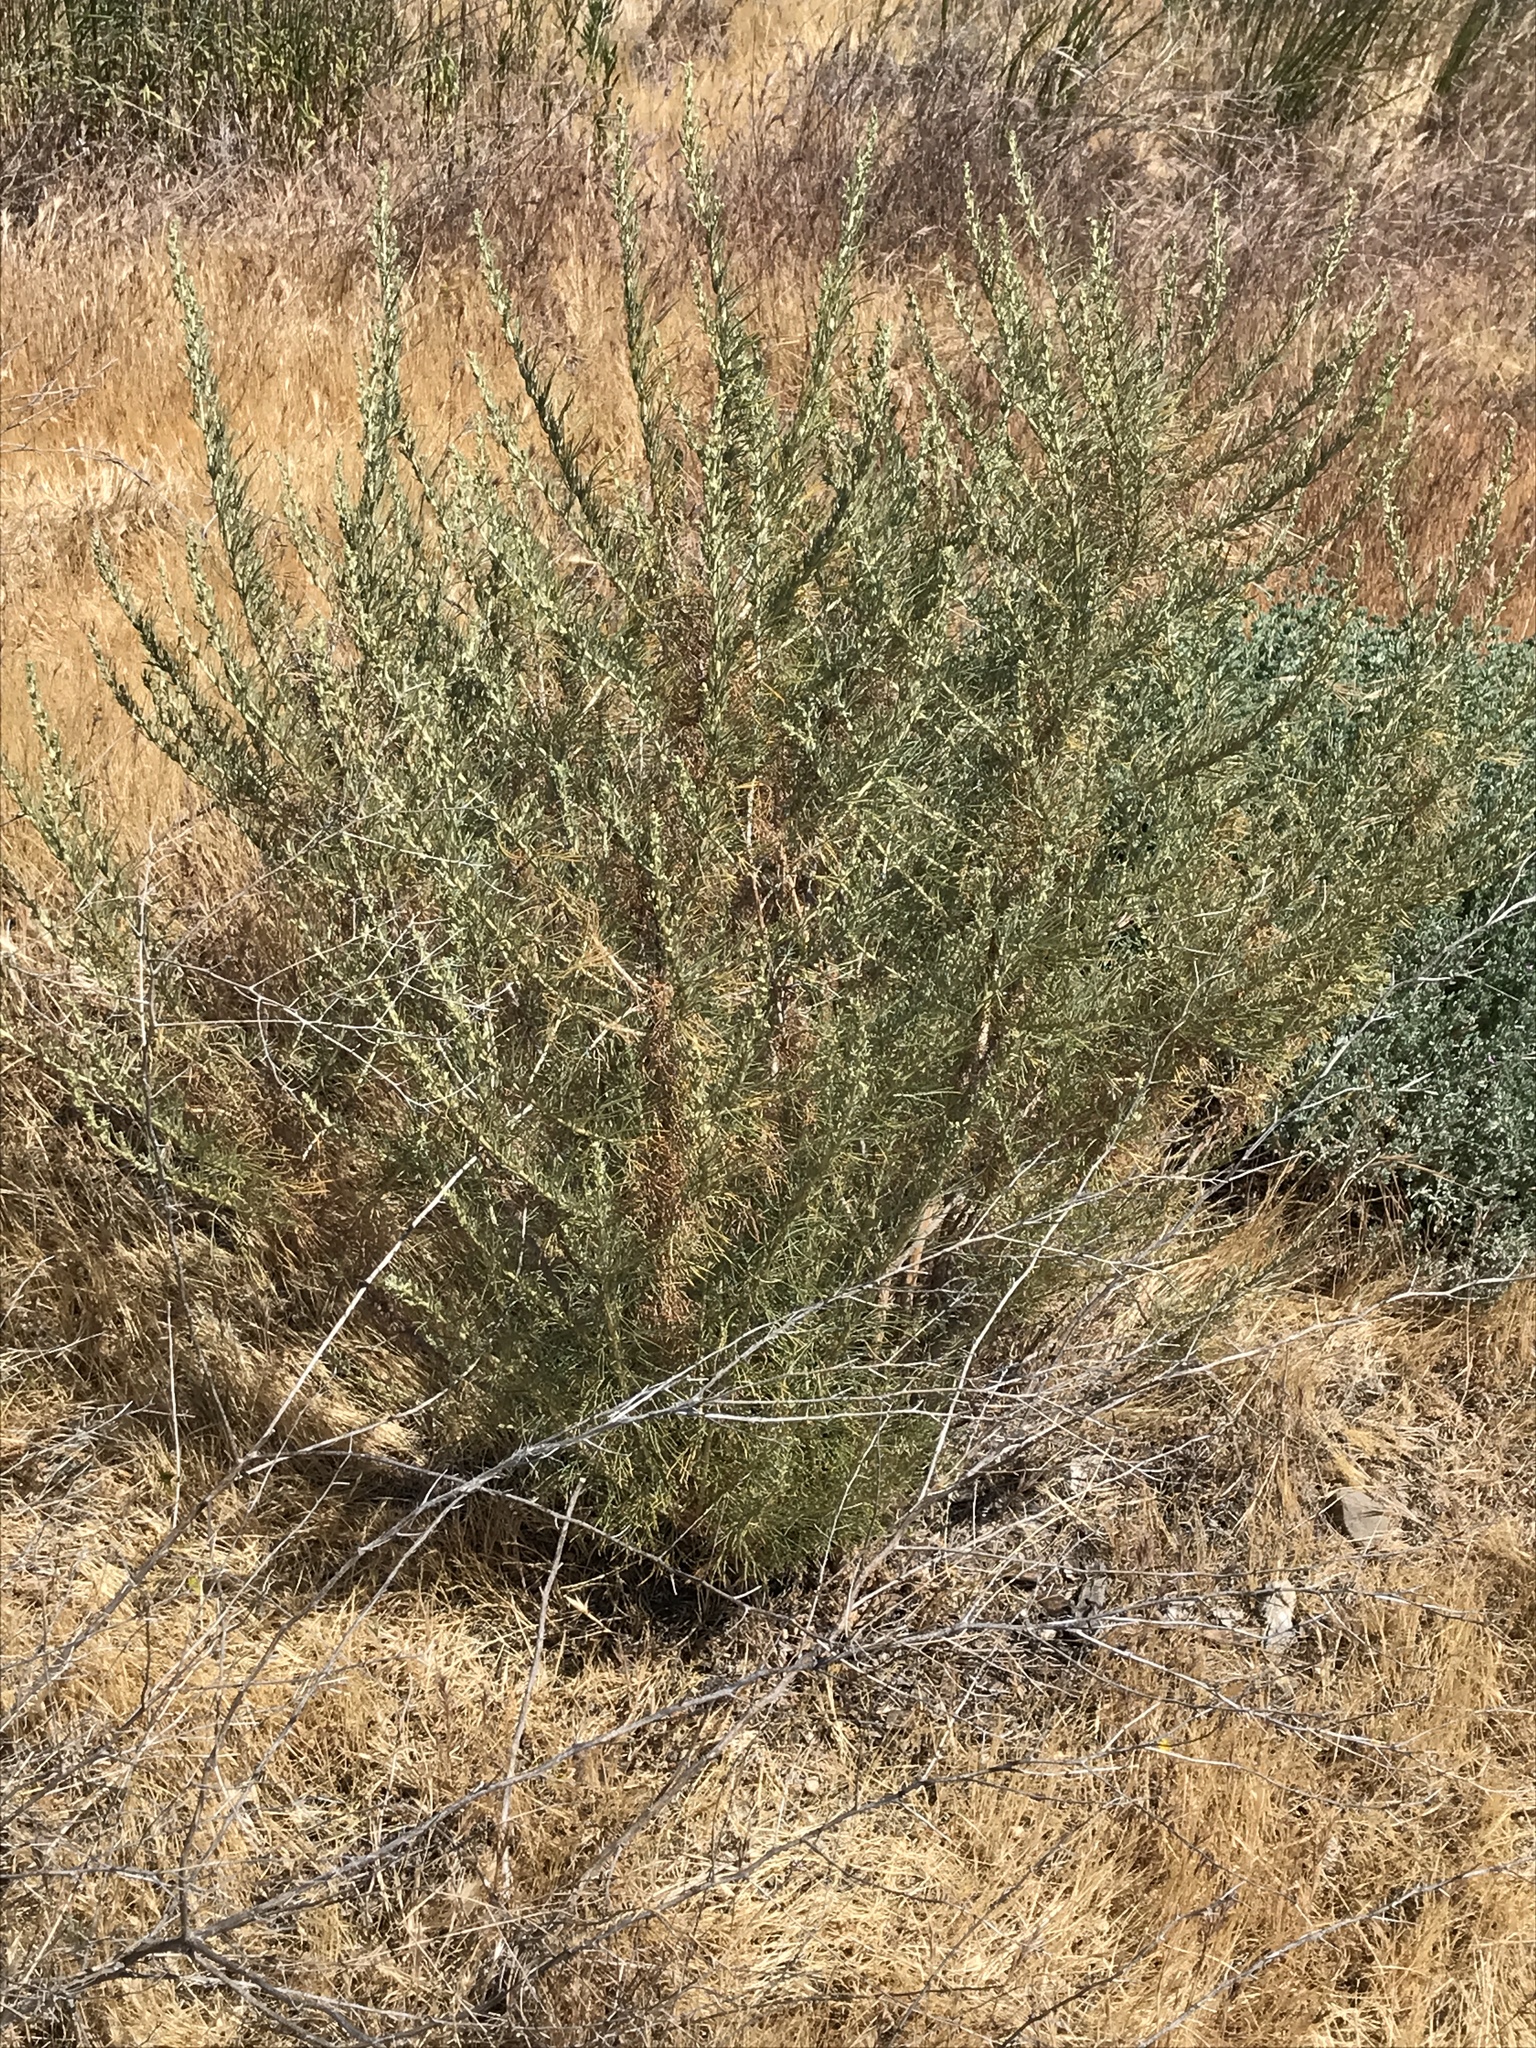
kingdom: Plantae
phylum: Tracheophyta
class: Magnoliopsida
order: Asterales
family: Asteraceae
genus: Artemisia
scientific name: Artemisia californica
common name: California sagebrush
